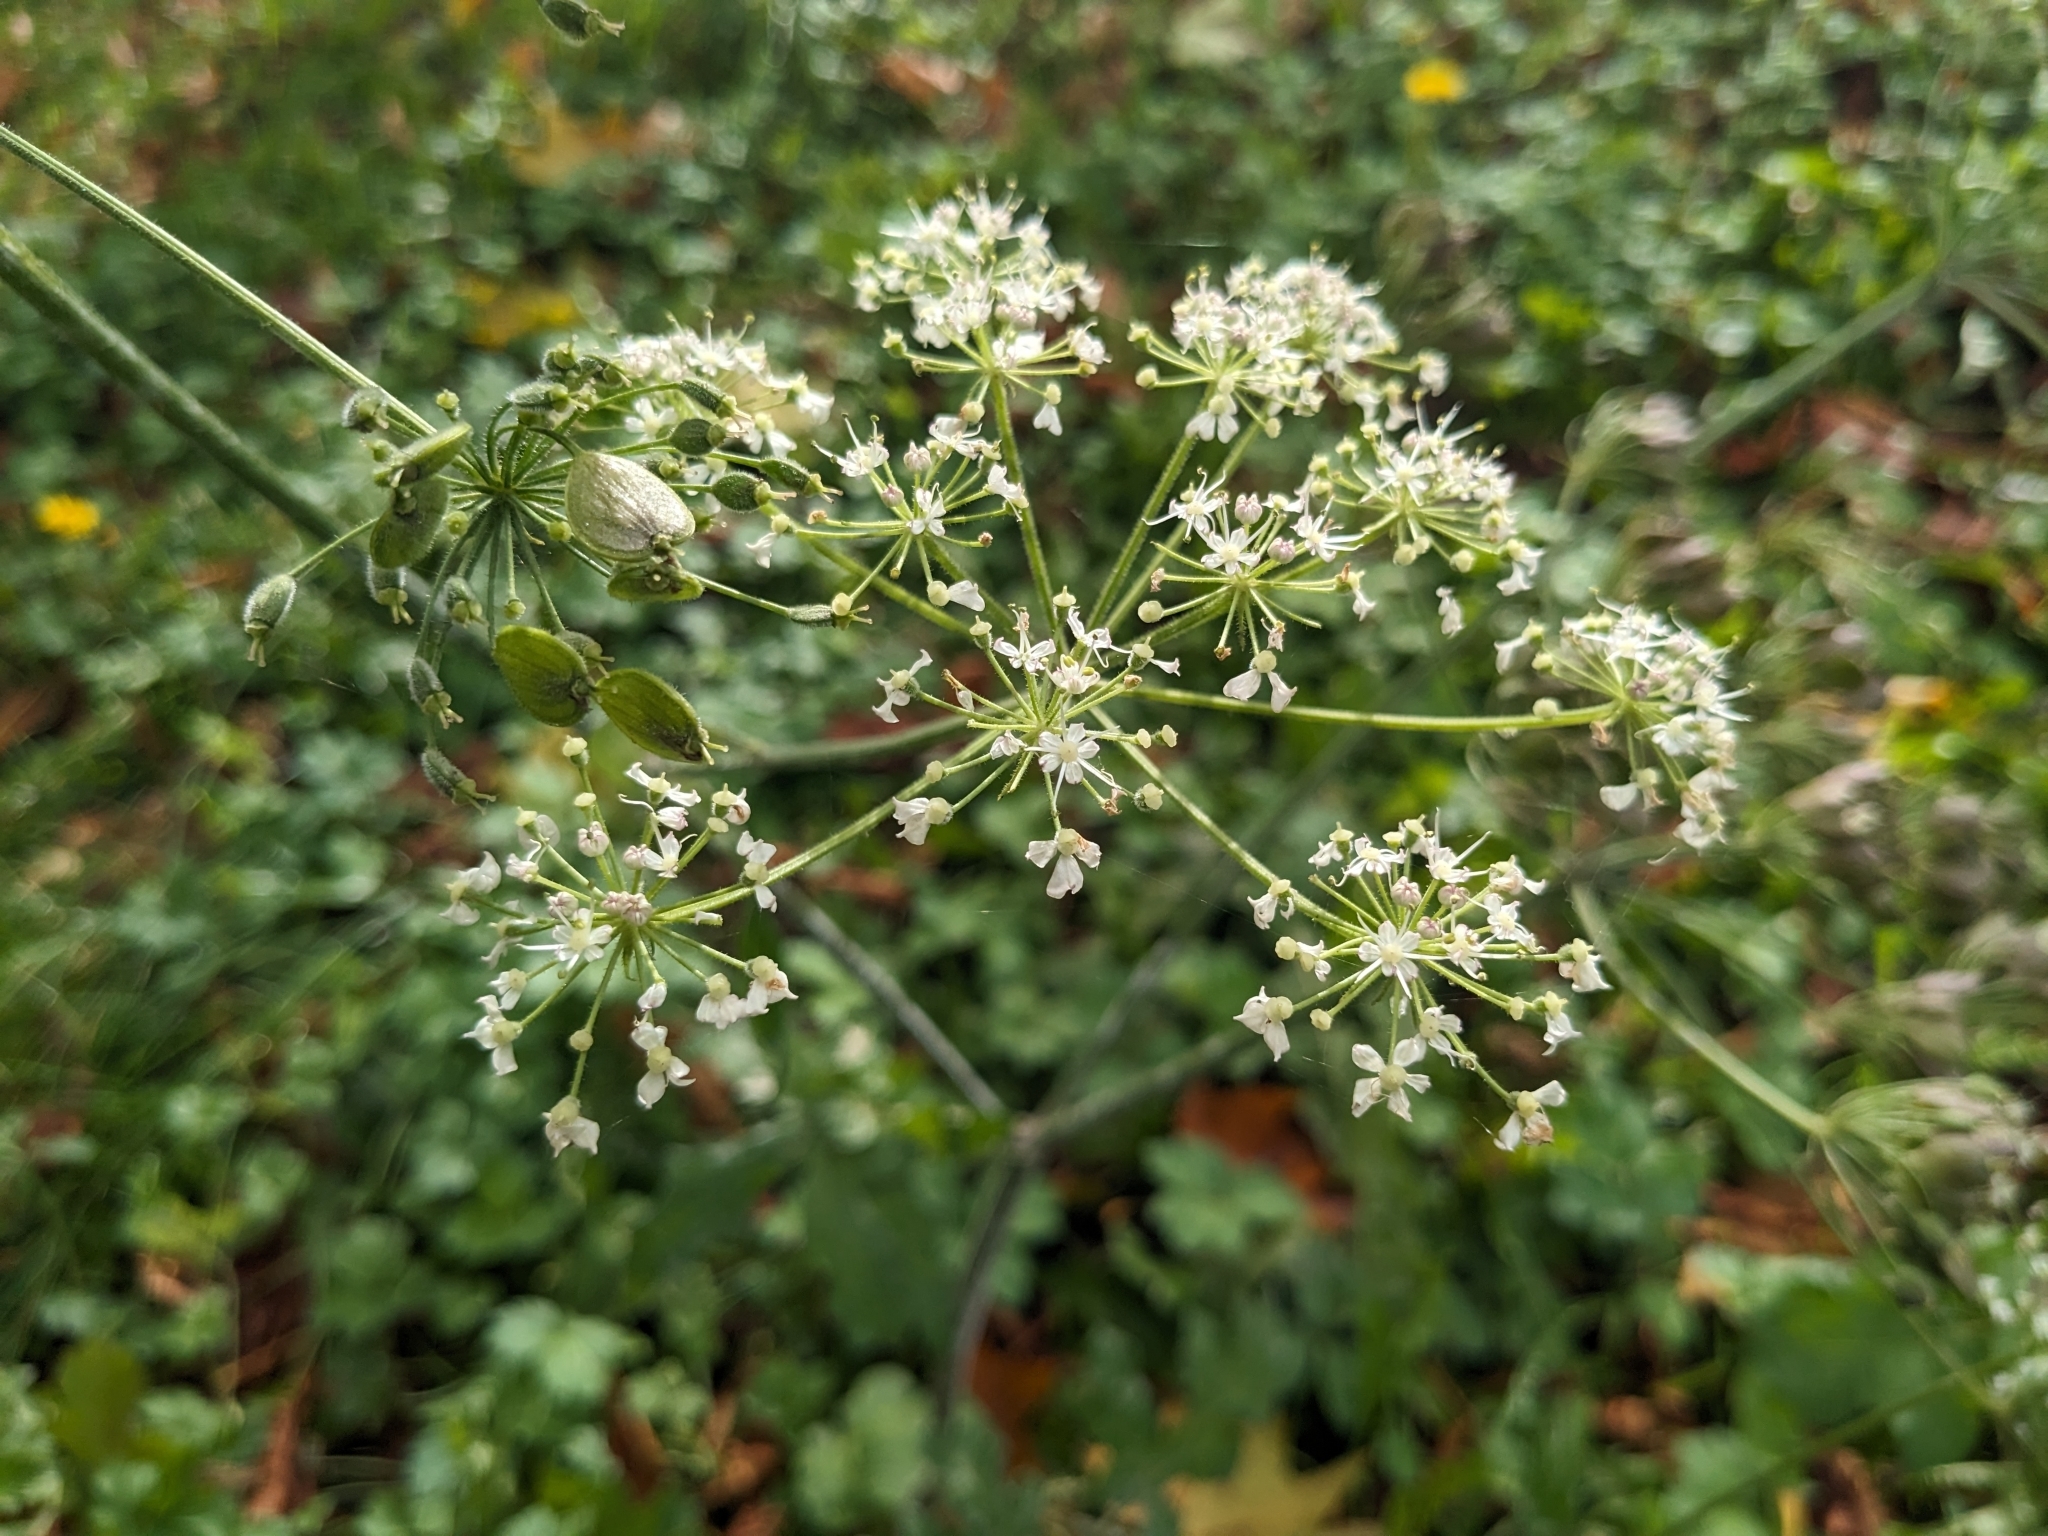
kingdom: Plantae
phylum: Tracheophyta
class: Magnoliopsida
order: Apiales
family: Apiaceae
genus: Heracleum
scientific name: Heracleum sphondylium
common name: Hogweed
